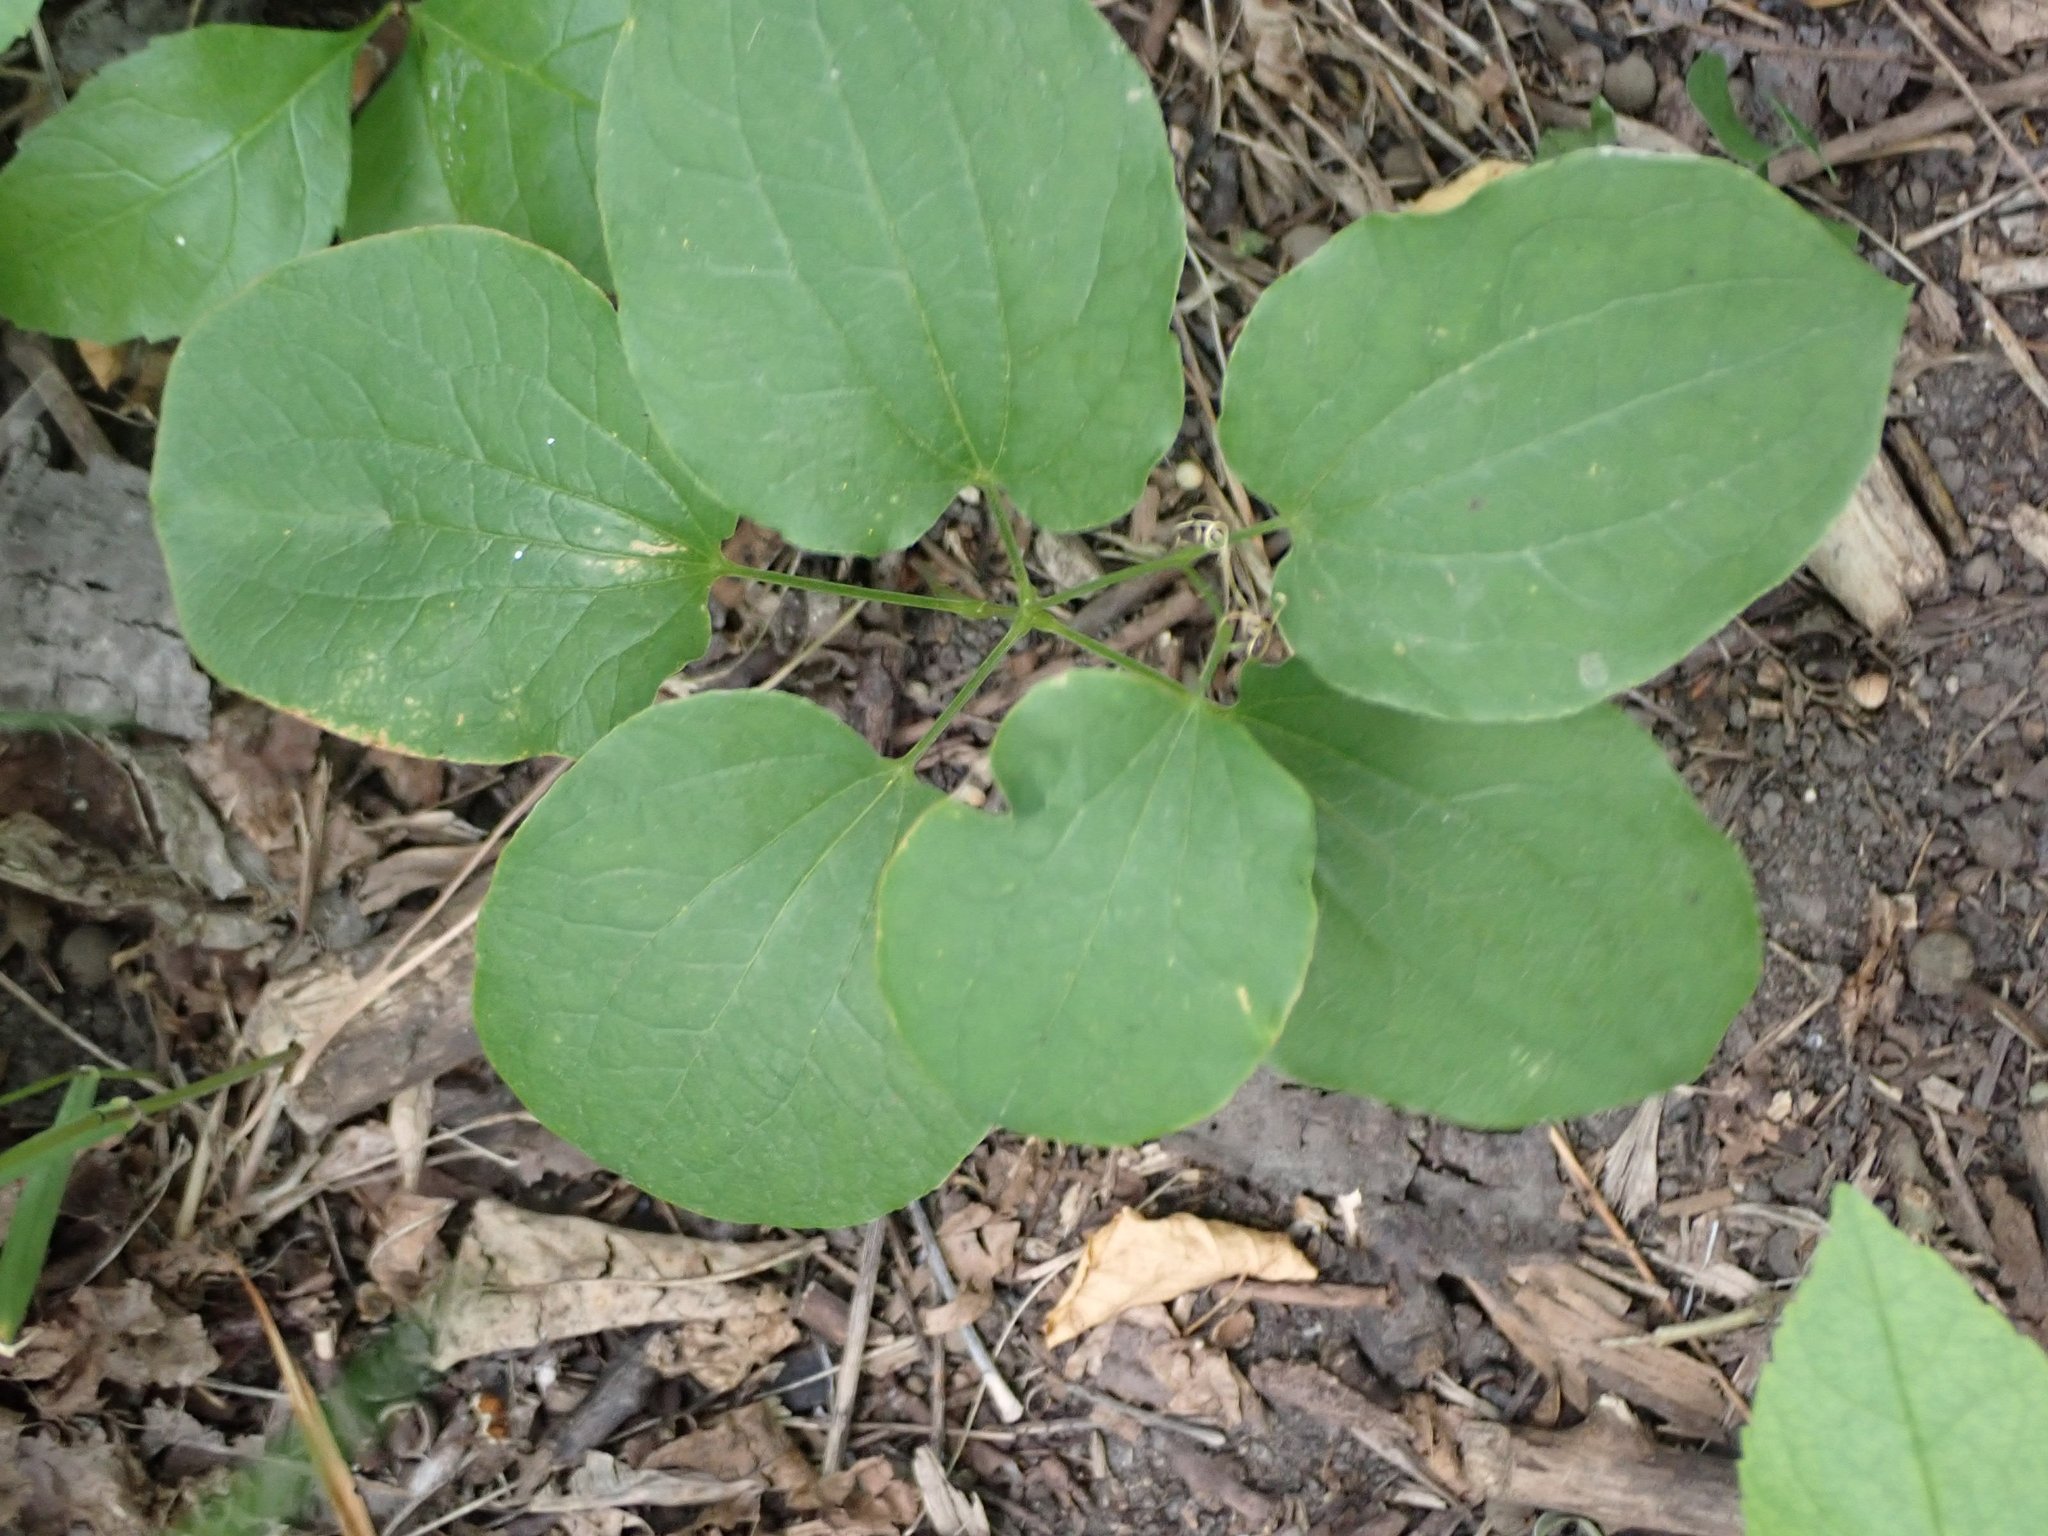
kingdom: Plantae
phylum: Tracheophyta
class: Liliopsida
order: Liliales
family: Smilacaceae
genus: Smilax
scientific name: Smilax lasioneura
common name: Blue ridge carrionflower
